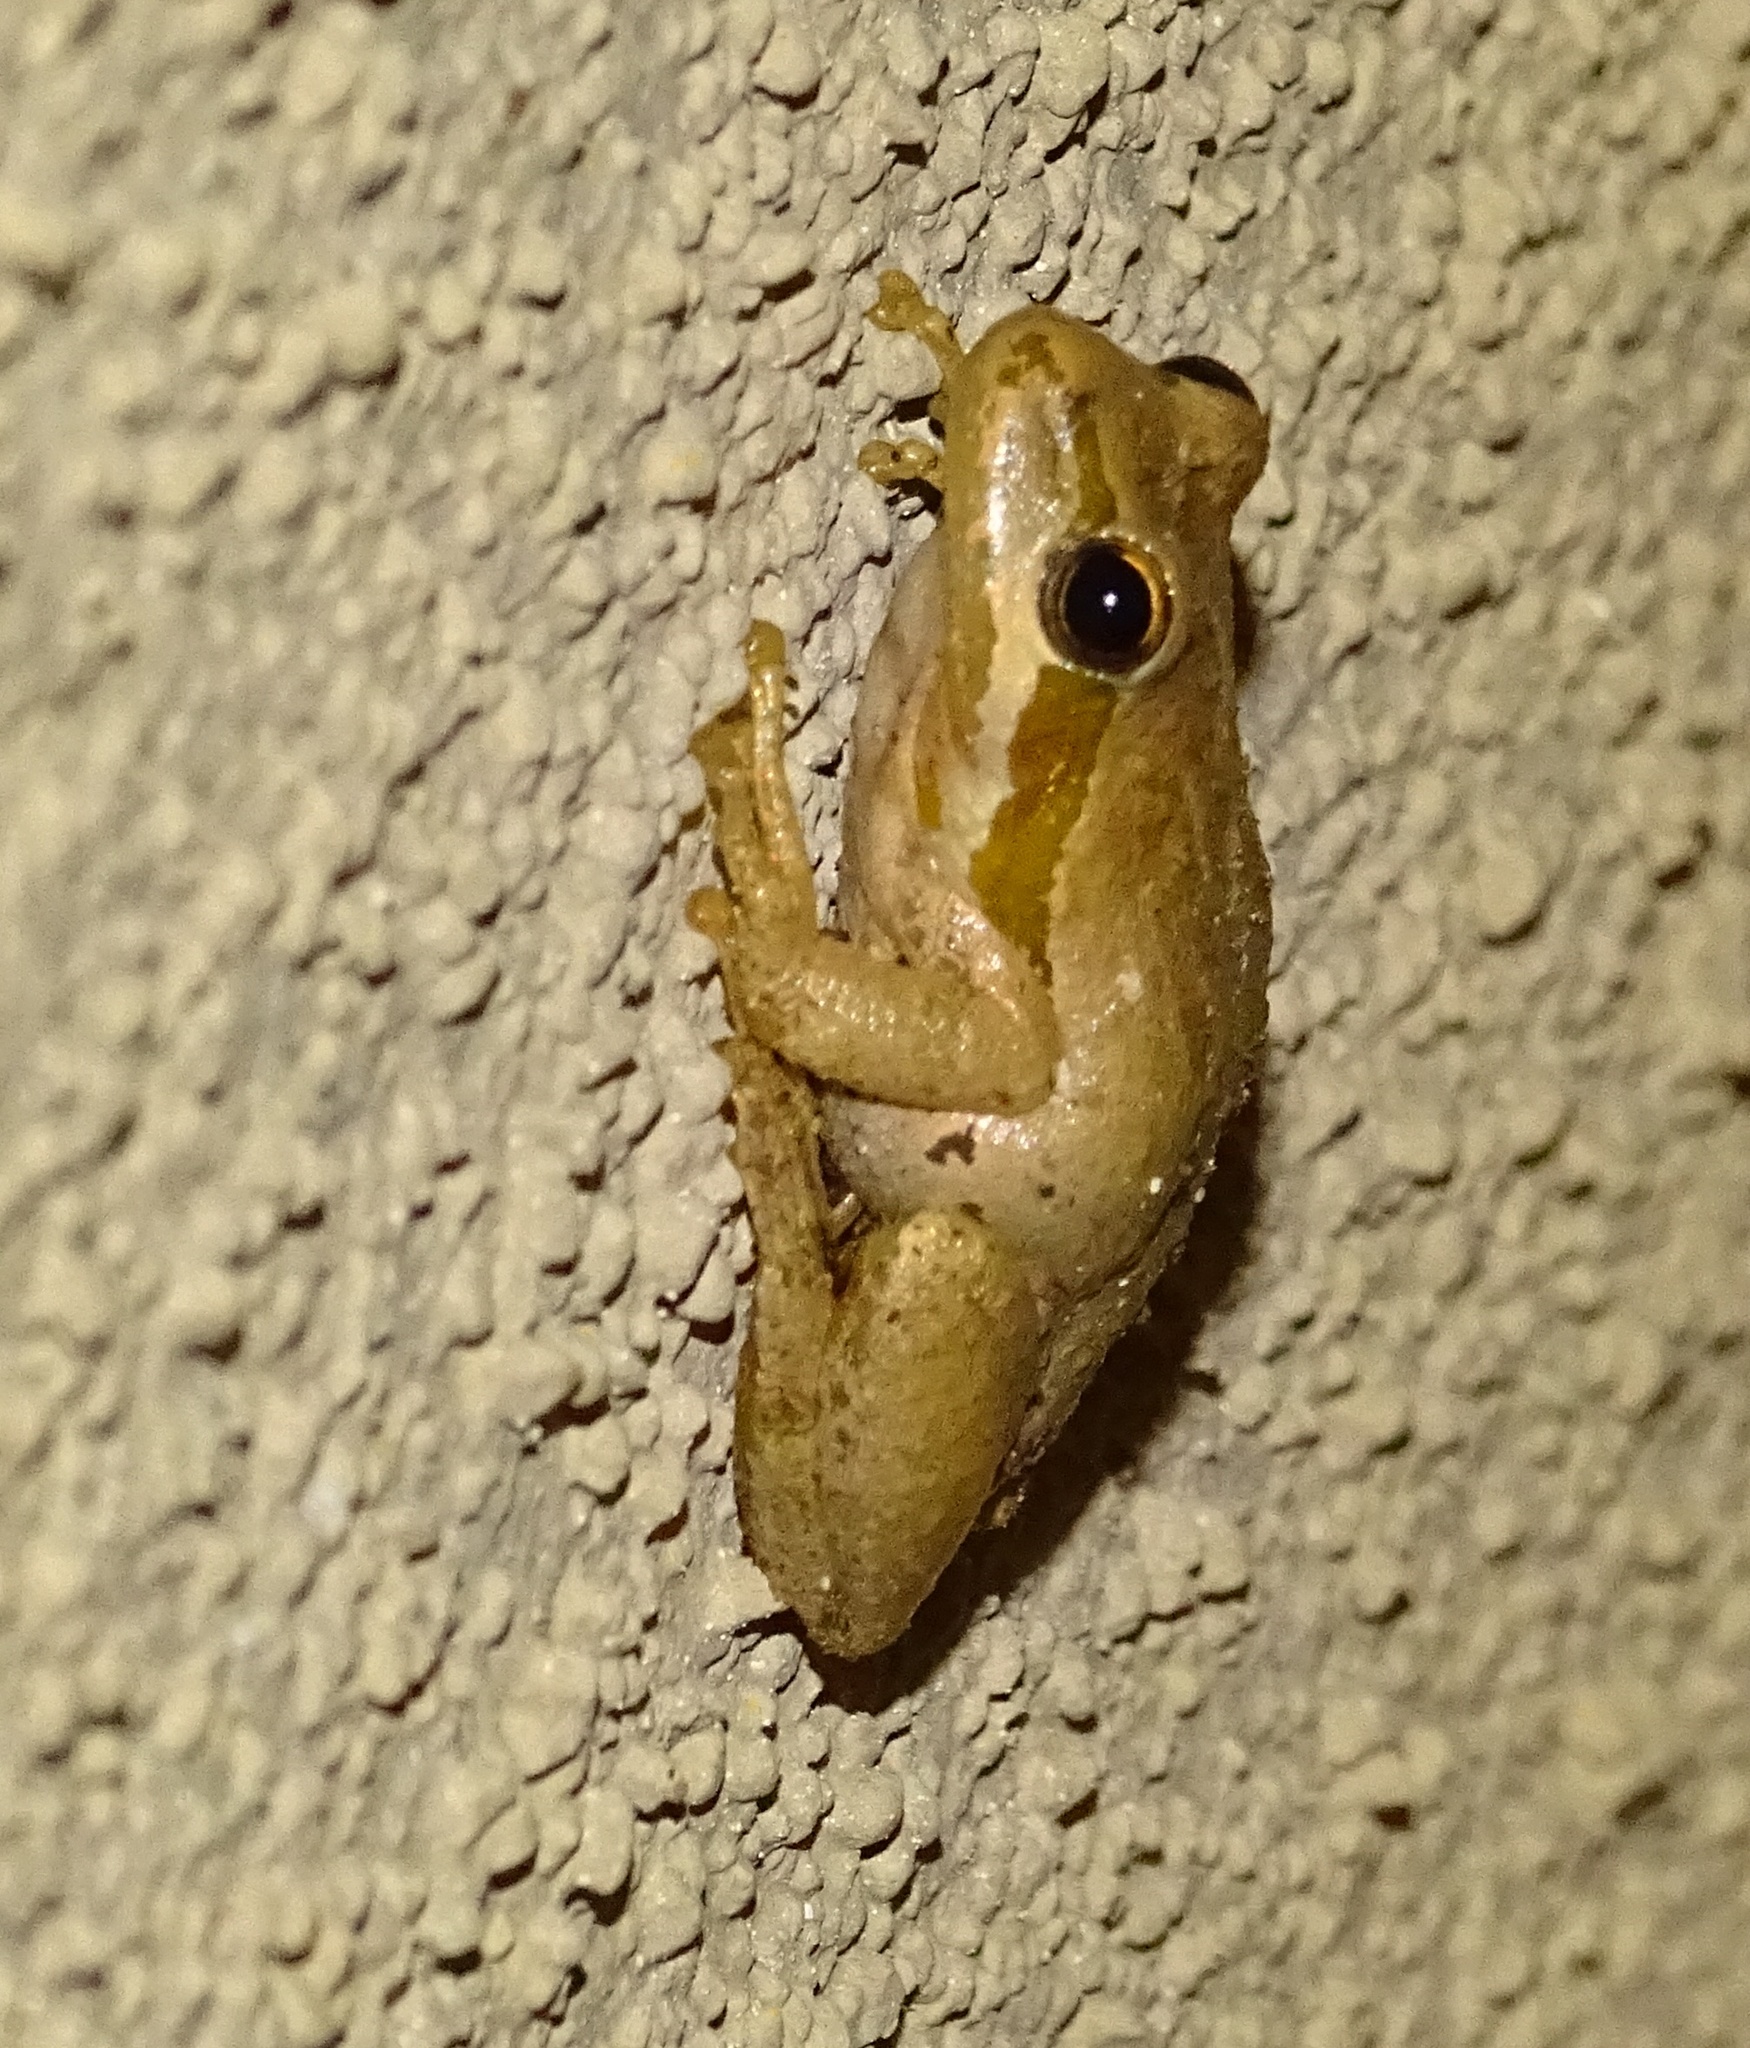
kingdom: Animalia
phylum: Chordata
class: Amphibia
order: Anura
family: Hylidae
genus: Pseudacris
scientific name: Pseudacris regilla
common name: Pacific chorus frog
